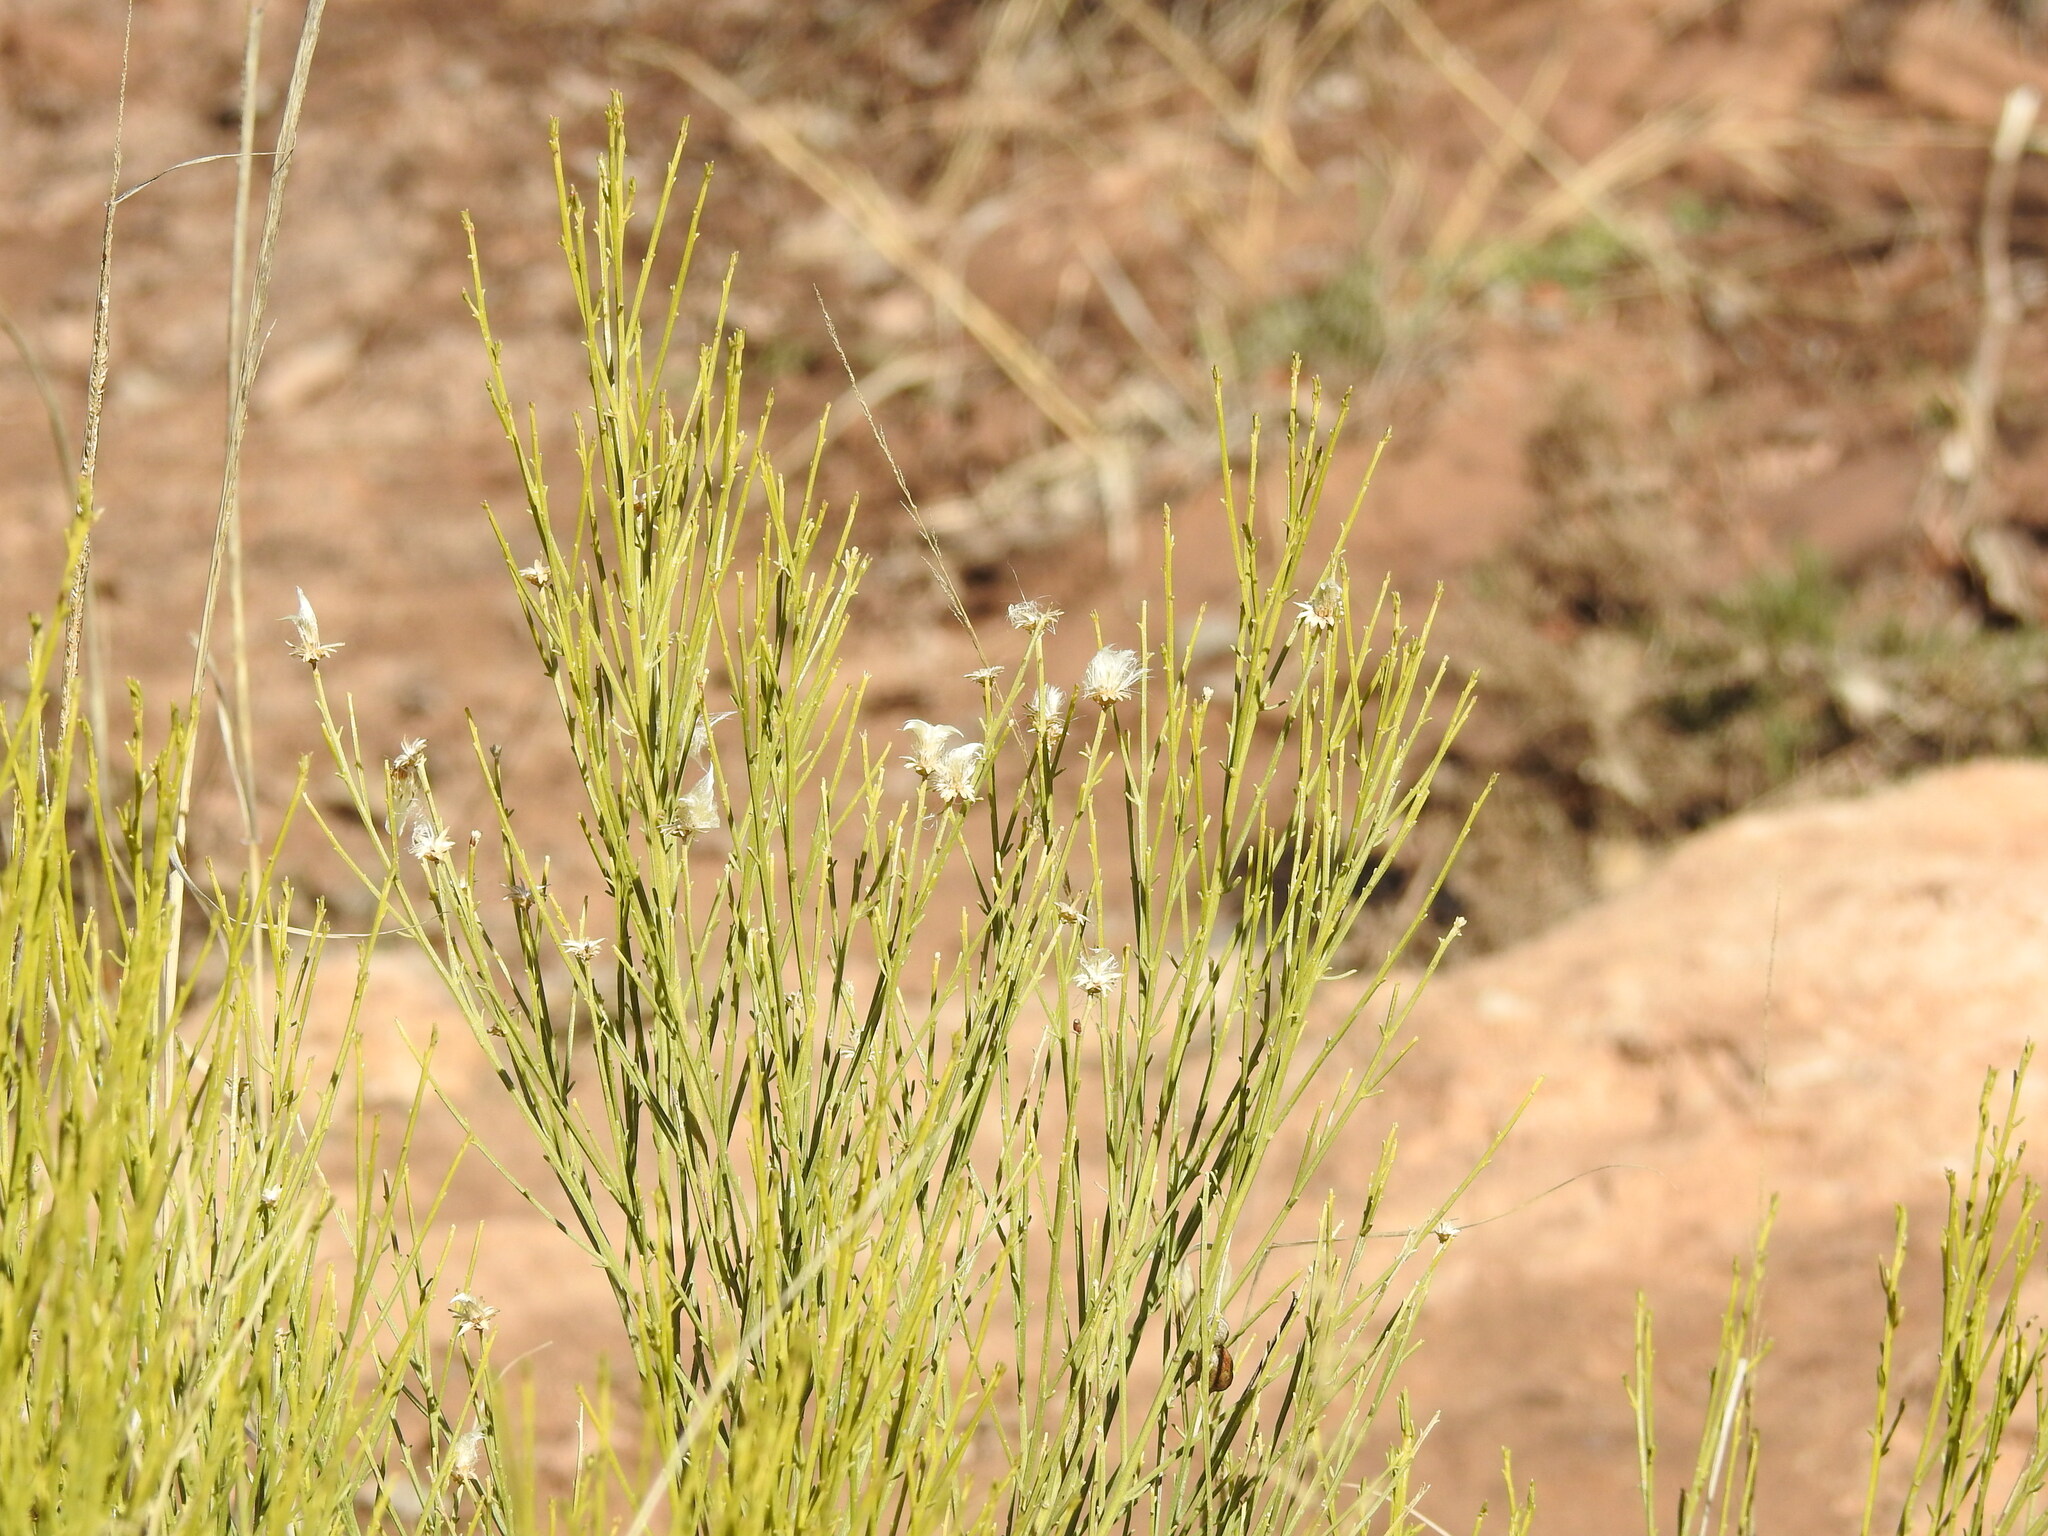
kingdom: Plantae
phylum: Tracheophyta
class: Magnoliopsida
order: Asterales
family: Asteraceae
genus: Baccharis
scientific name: Baccharis sarothroides
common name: Desert-broom
